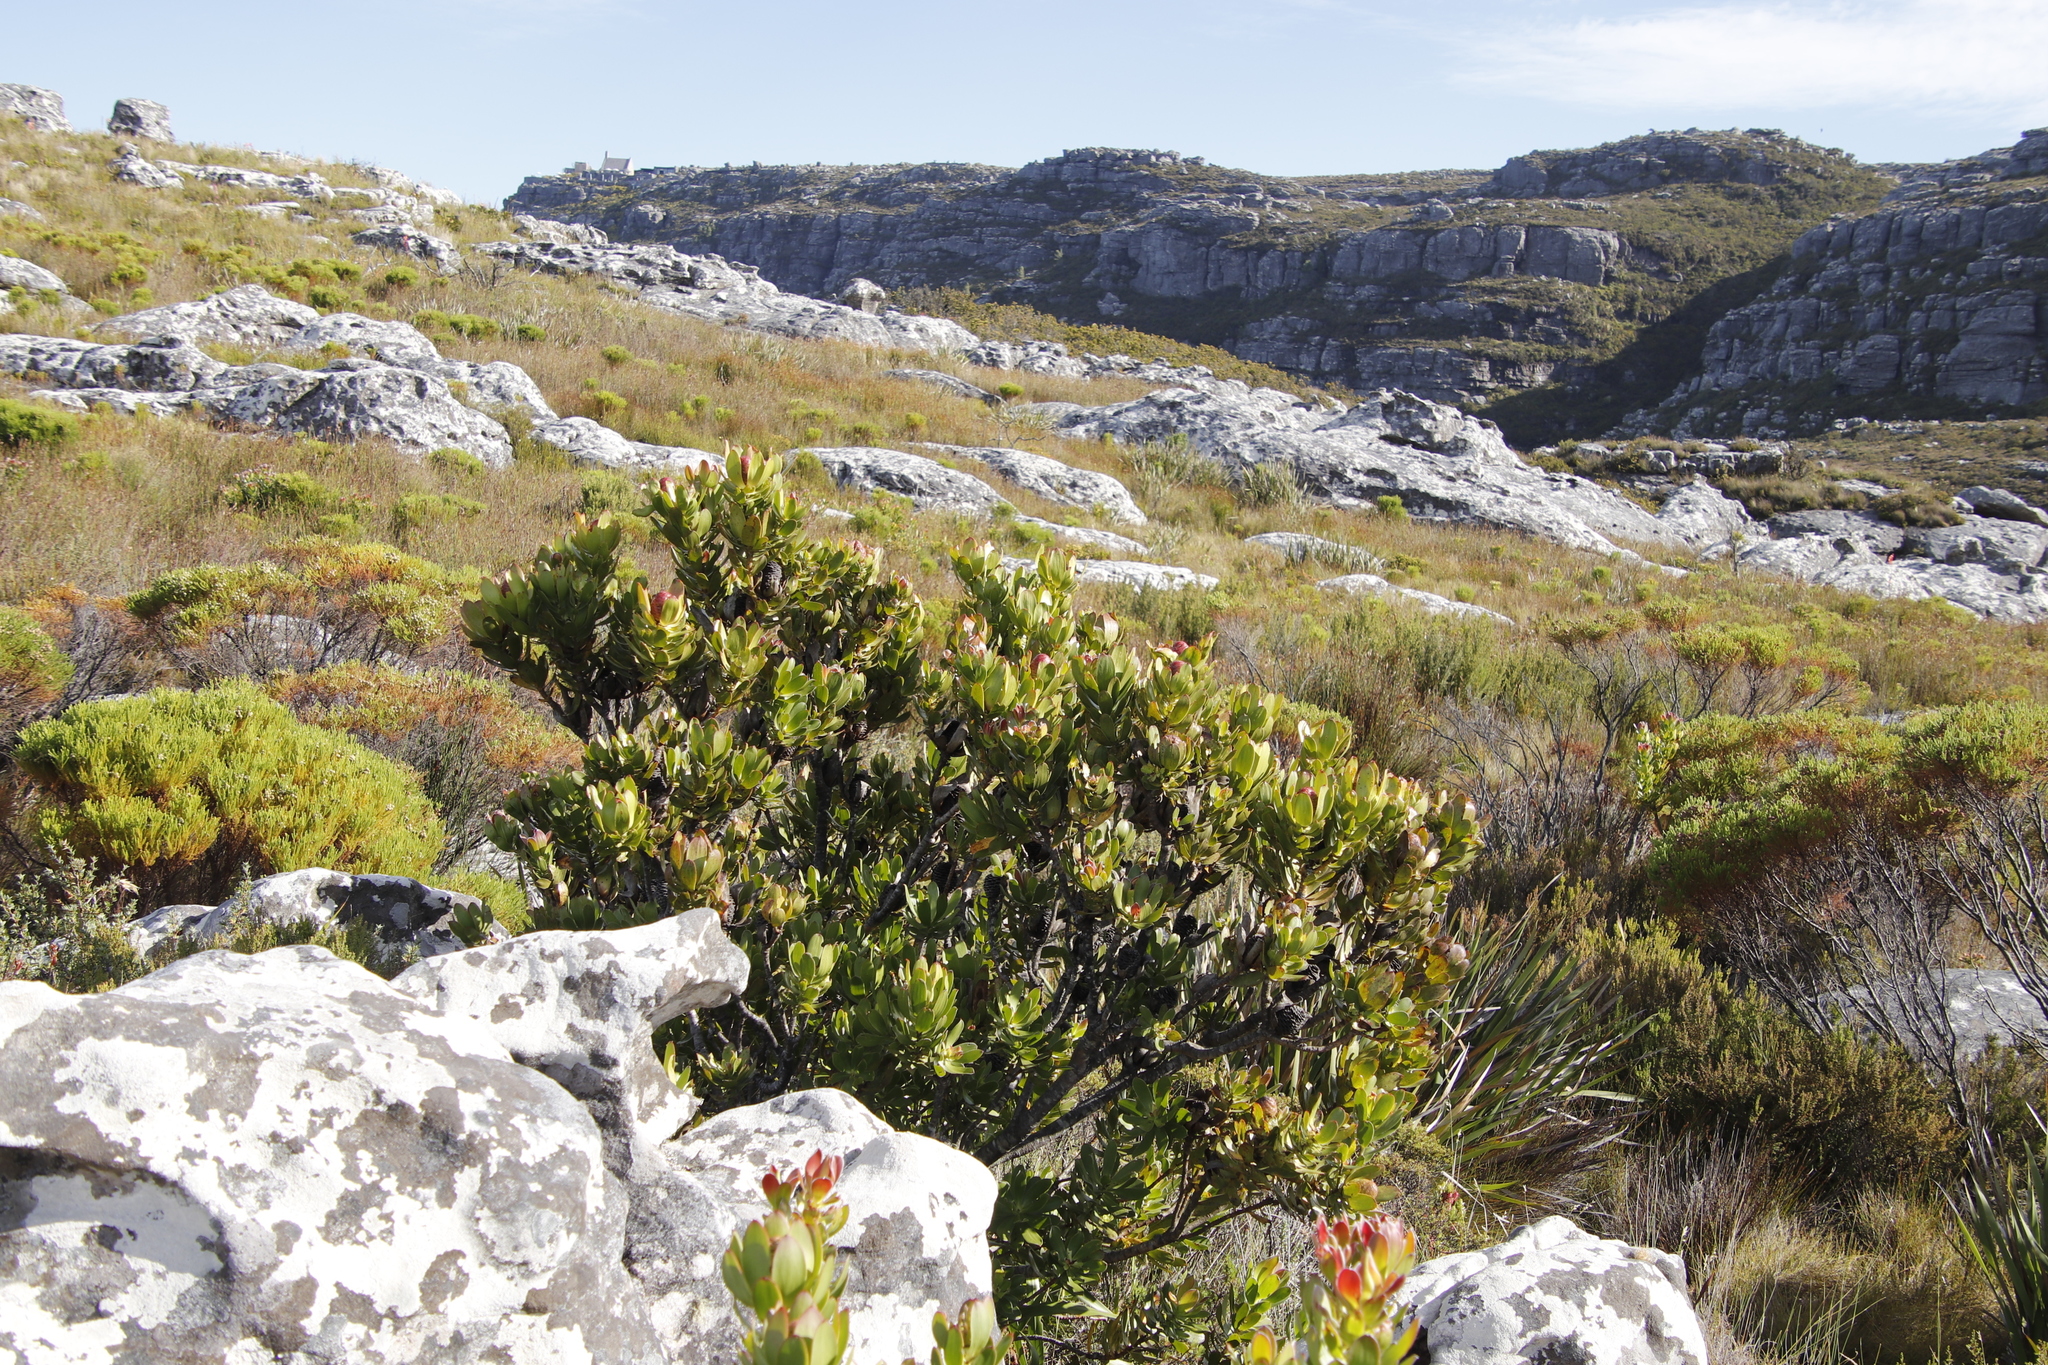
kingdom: Plantae
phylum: Tracheophyta
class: Magnoliopsida
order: Proteales
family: Proteaceae
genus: Leucadendron
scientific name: Leucadendron strobilinum
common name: Mountain rose
